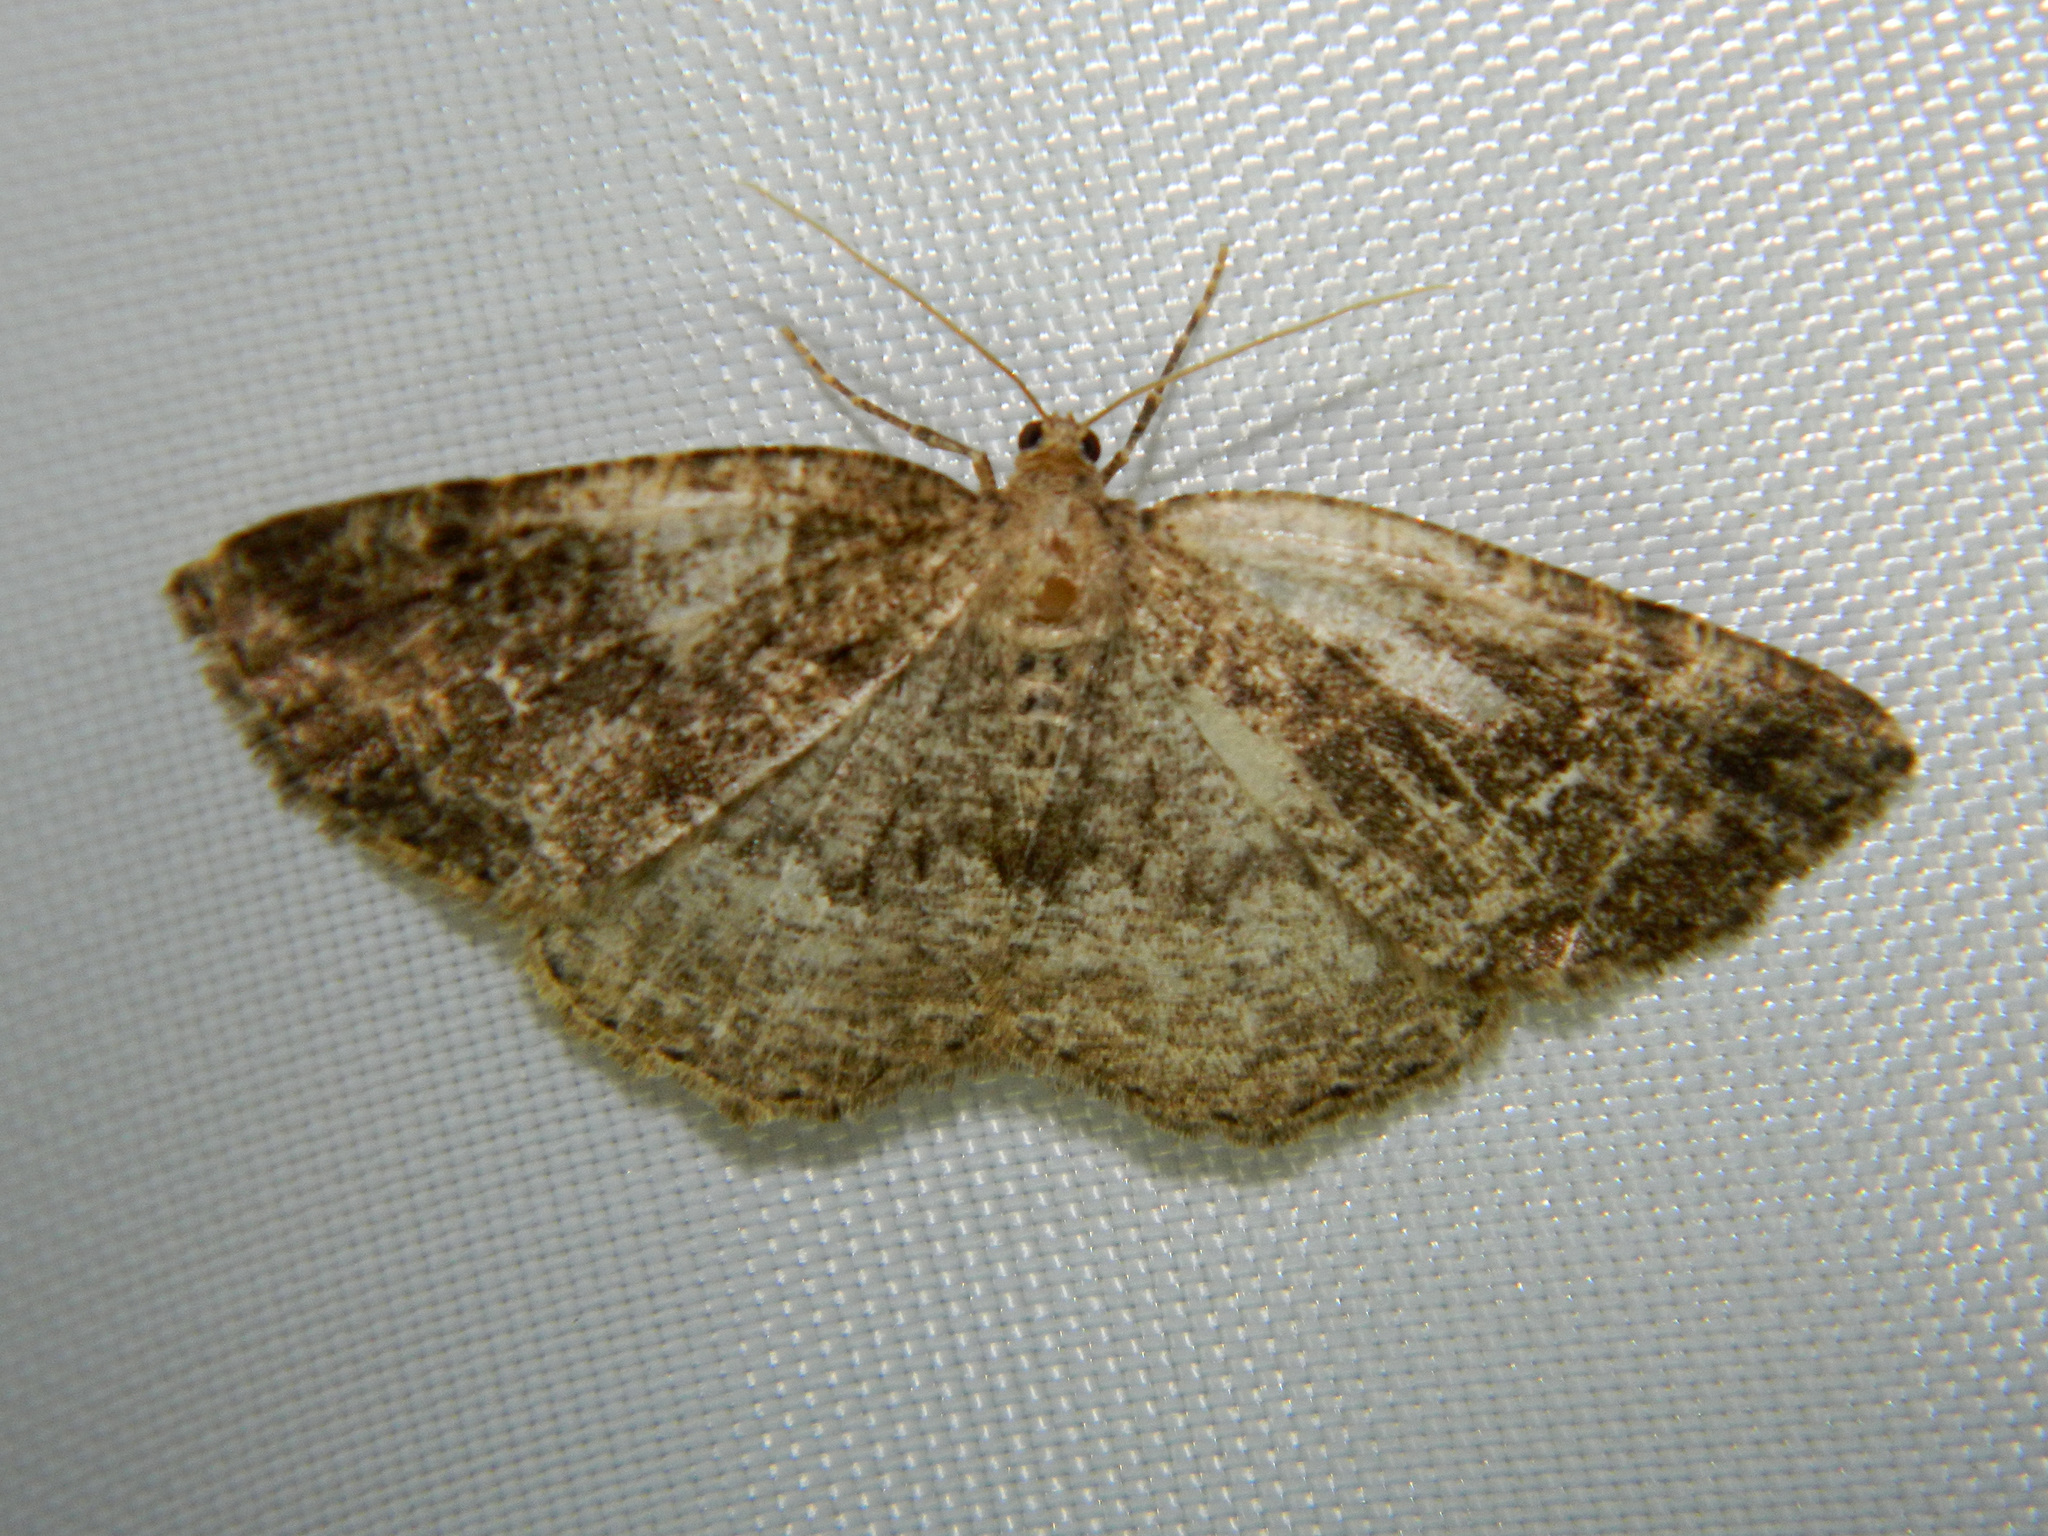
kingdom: Animalia
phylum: Arthropoda
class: Insecta
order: Lepidoptera
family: Geometridae
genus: Homochlodes
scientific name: Homochlodes fritillaria
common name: Pale homochlodes
